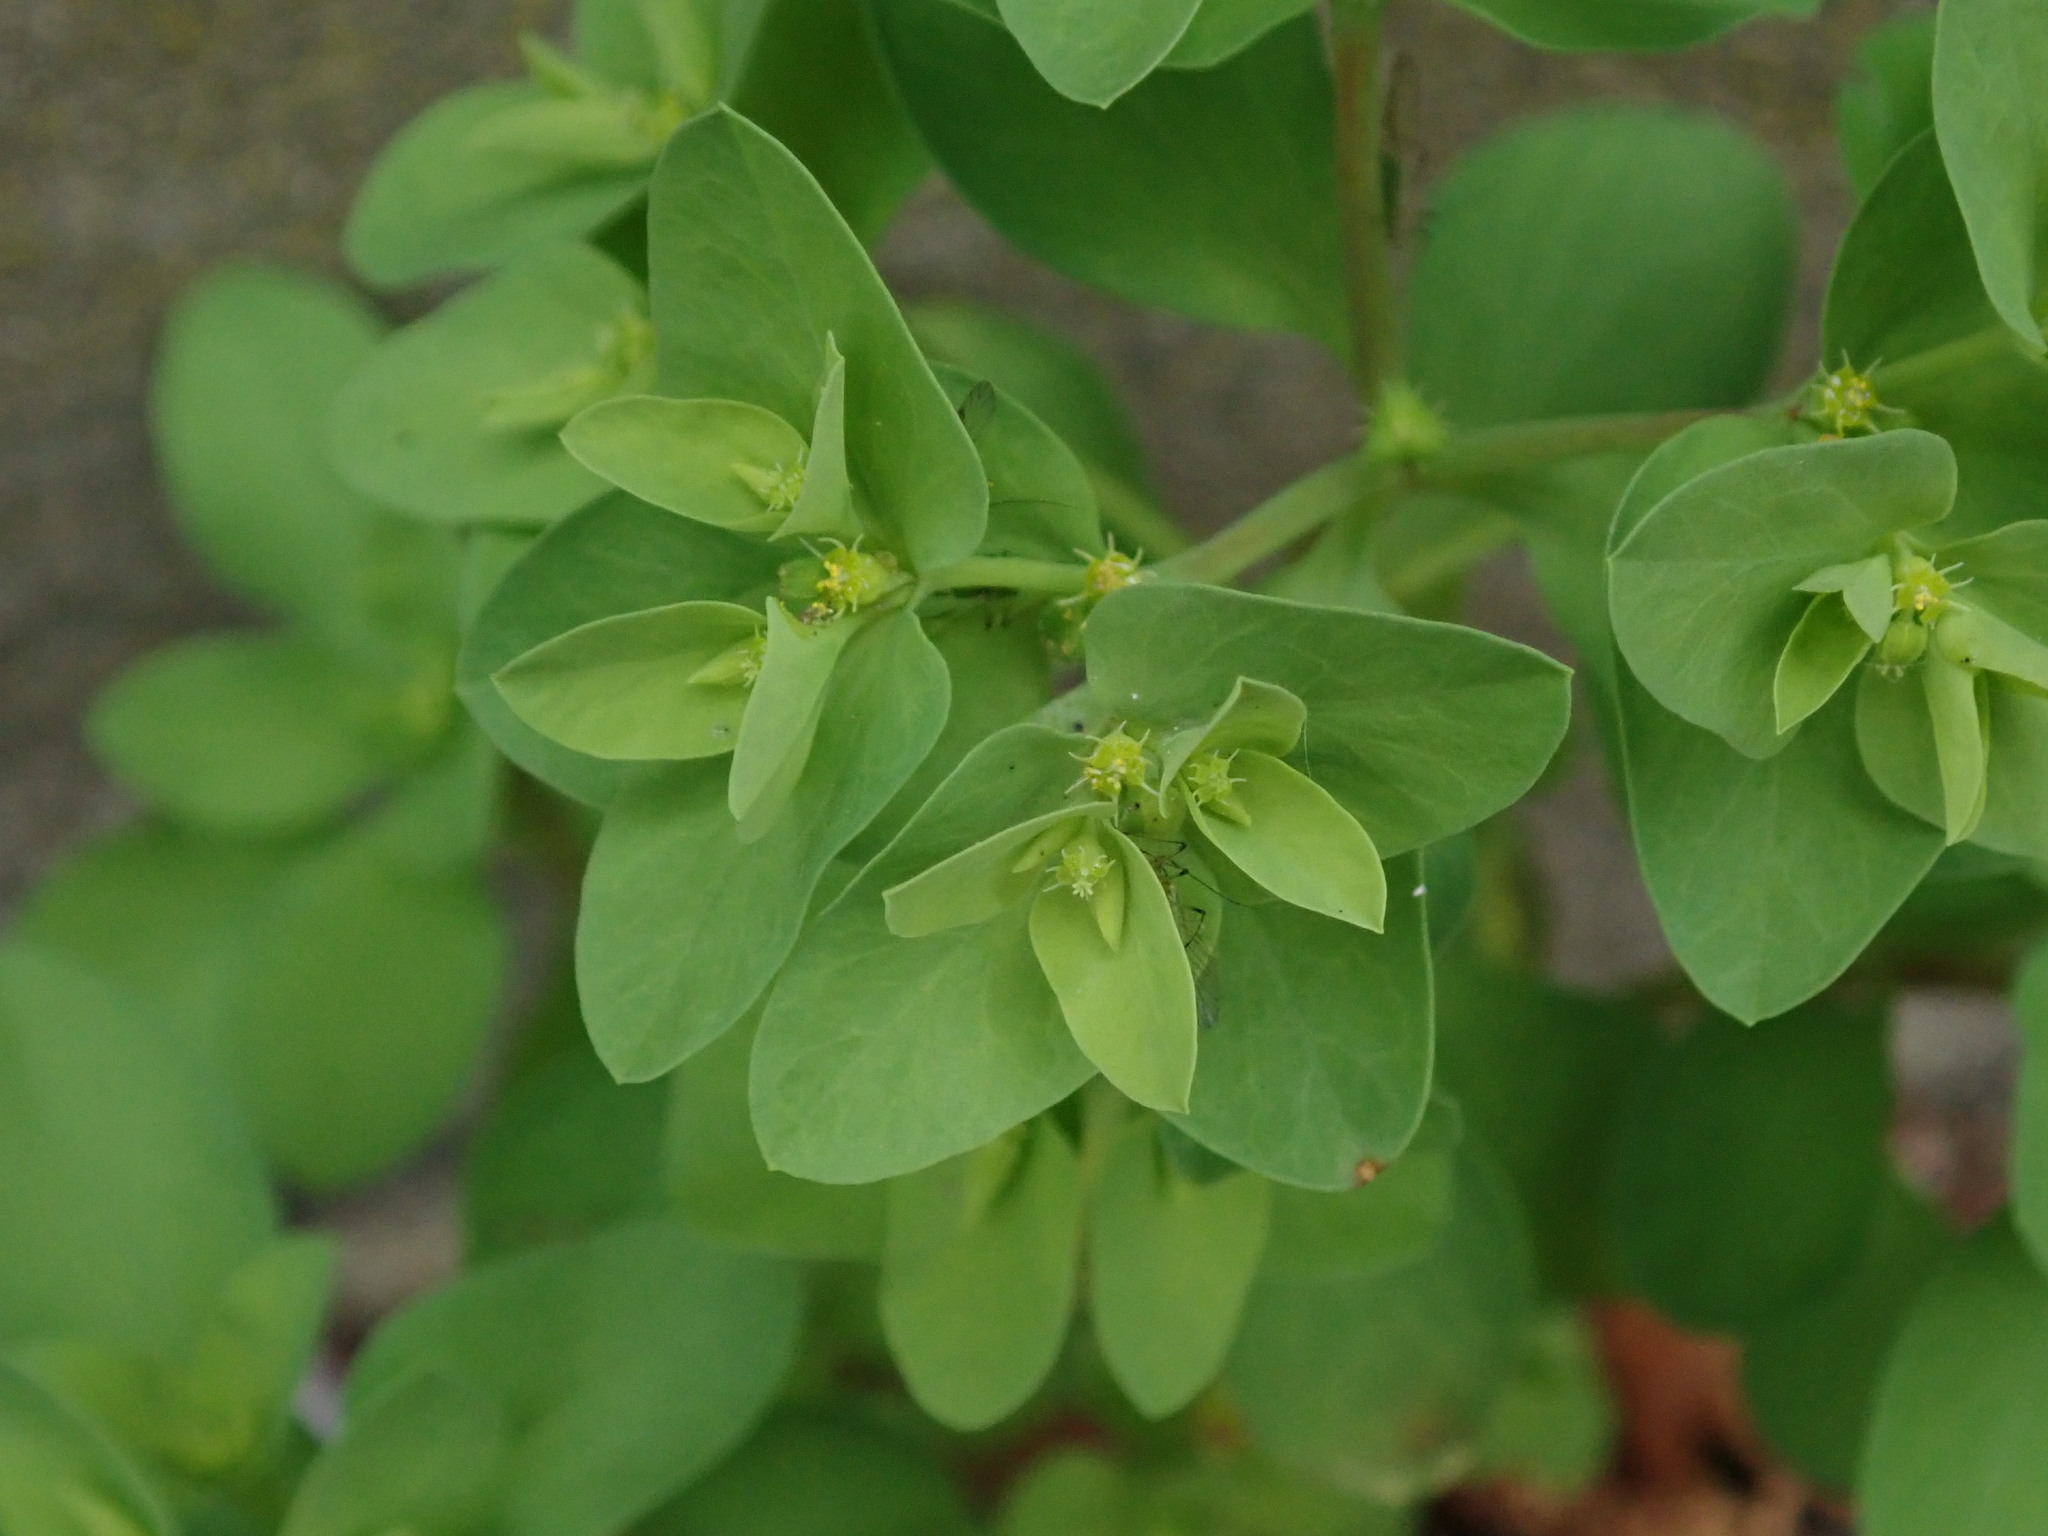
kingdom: Plantae
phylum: Tracheophyta
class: Magnoliopsida
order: Malpighiales
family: Euphorbiaceae
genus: Euphorbia
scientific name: Euphorbia peplus
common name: Petty spurge
